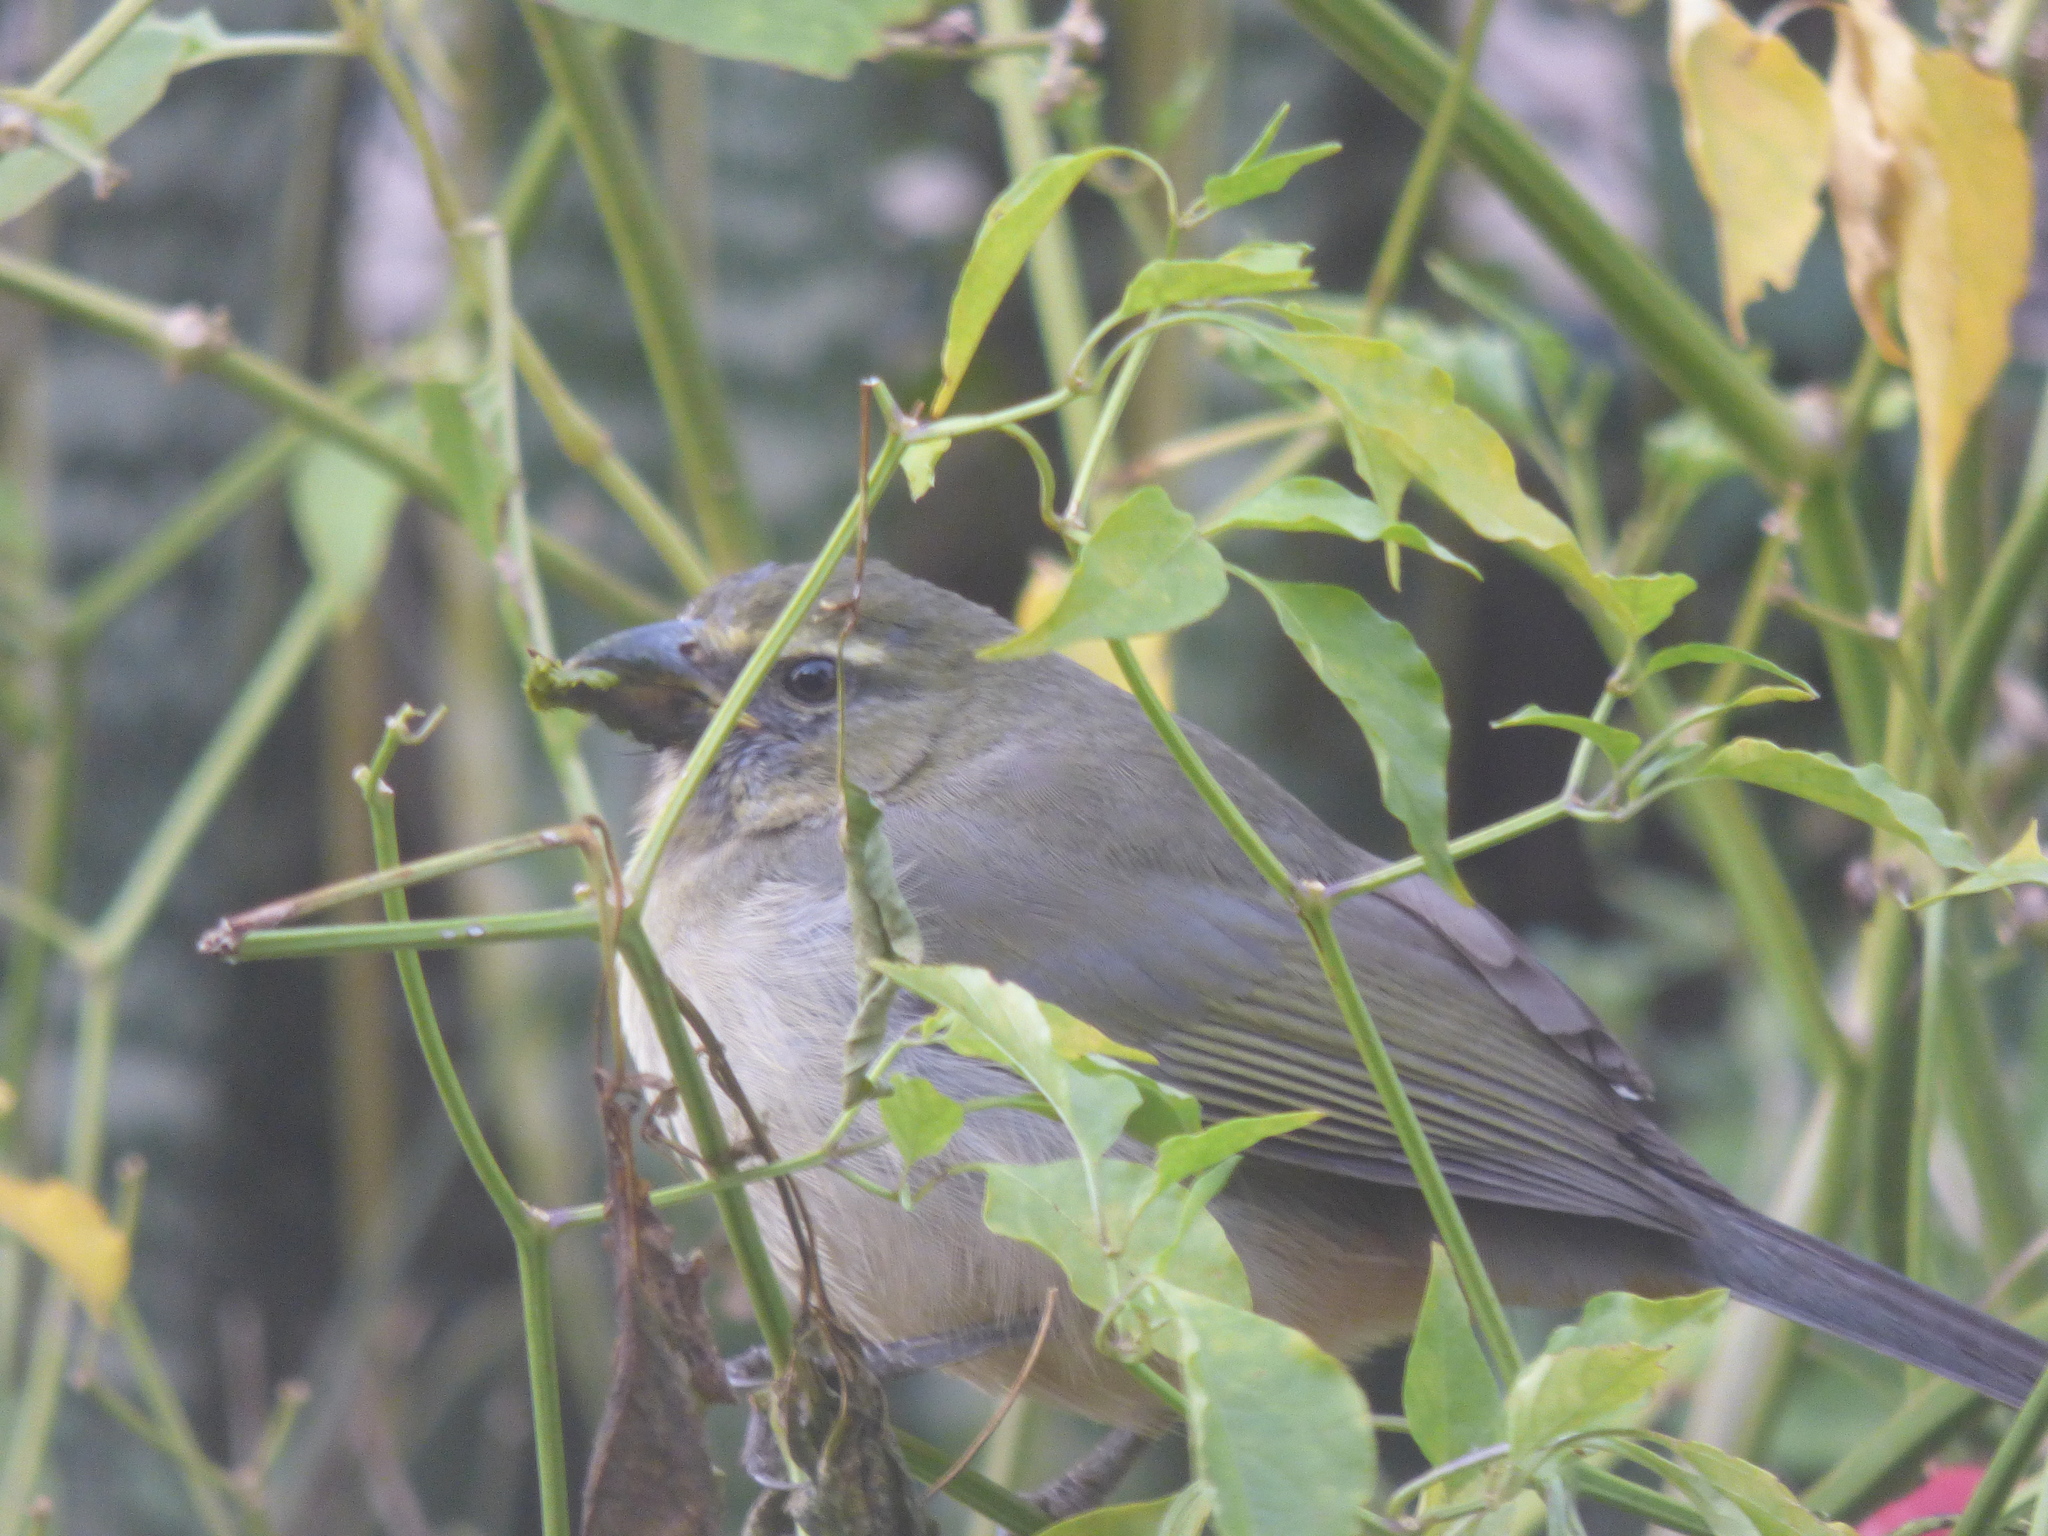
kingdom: Animalia
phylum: Chordata
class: Aves
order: Passeriformes
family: Thraupidae
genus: Saltator
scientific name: Saltator coerulescens
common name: Grayish saltator
